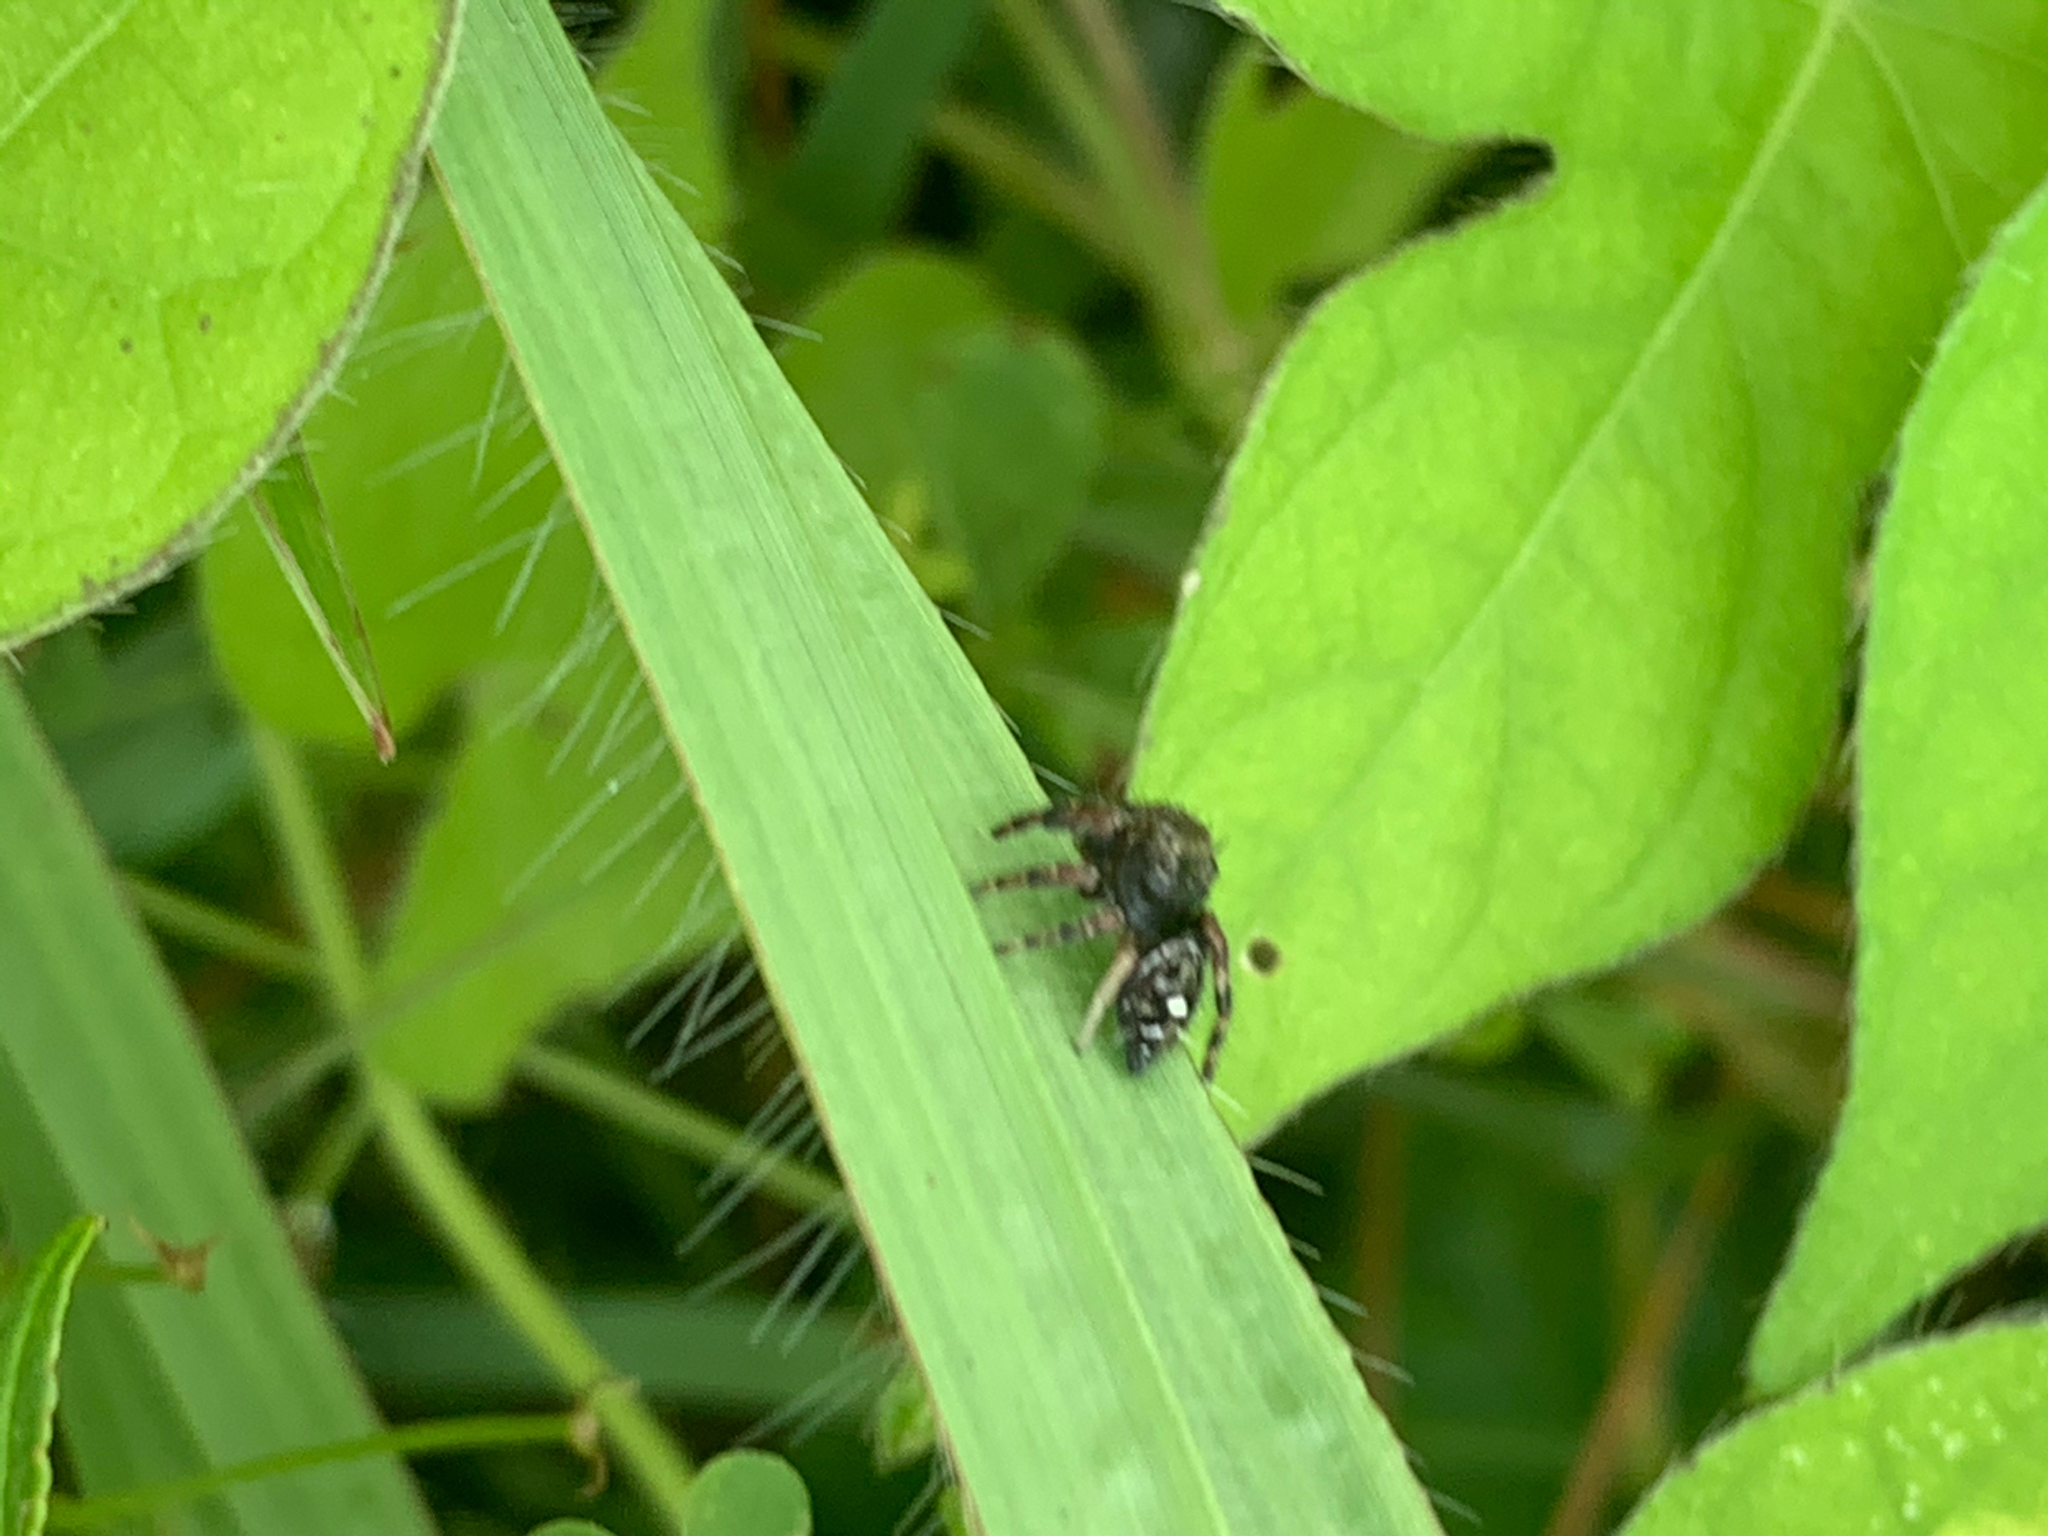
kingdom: Animalia
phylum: Arthropoda
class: Arachnida
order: Araneae
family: Salticidae
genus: Phidippus
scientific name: Phidippus audax
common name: Bold jumper
